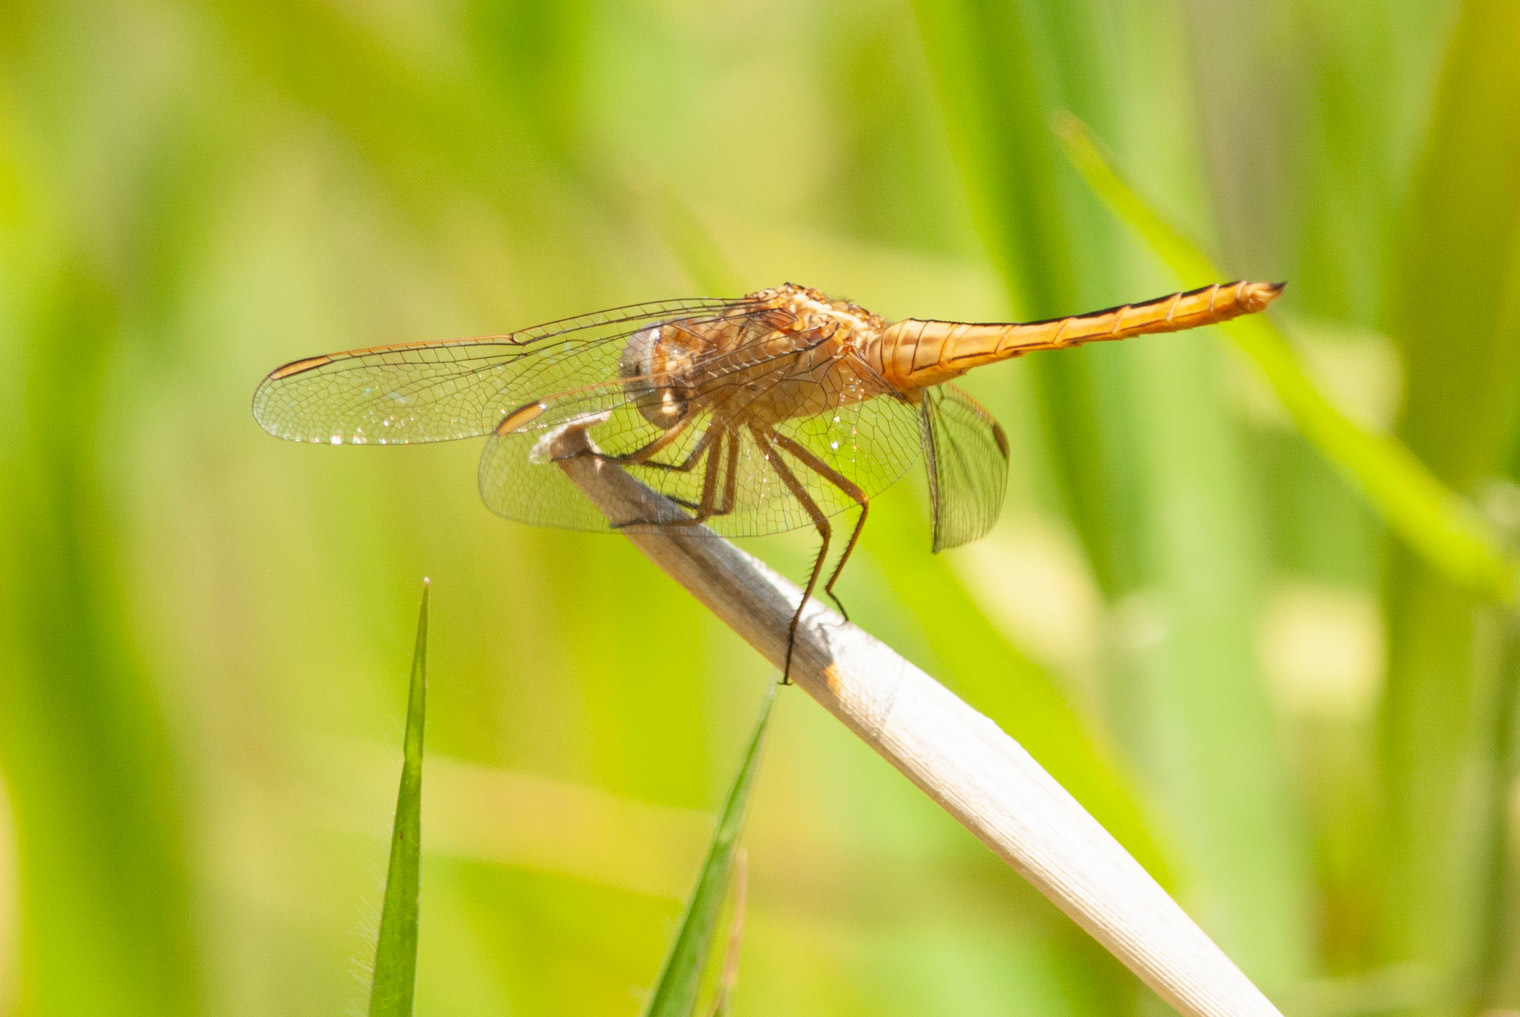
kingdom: Animalia
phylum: Arthropoda
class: Insecta
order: Odonata
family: Libellulidae
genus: Crocothemis
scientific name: Crocothemis nigrifrons
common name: Black-headed skimmer
